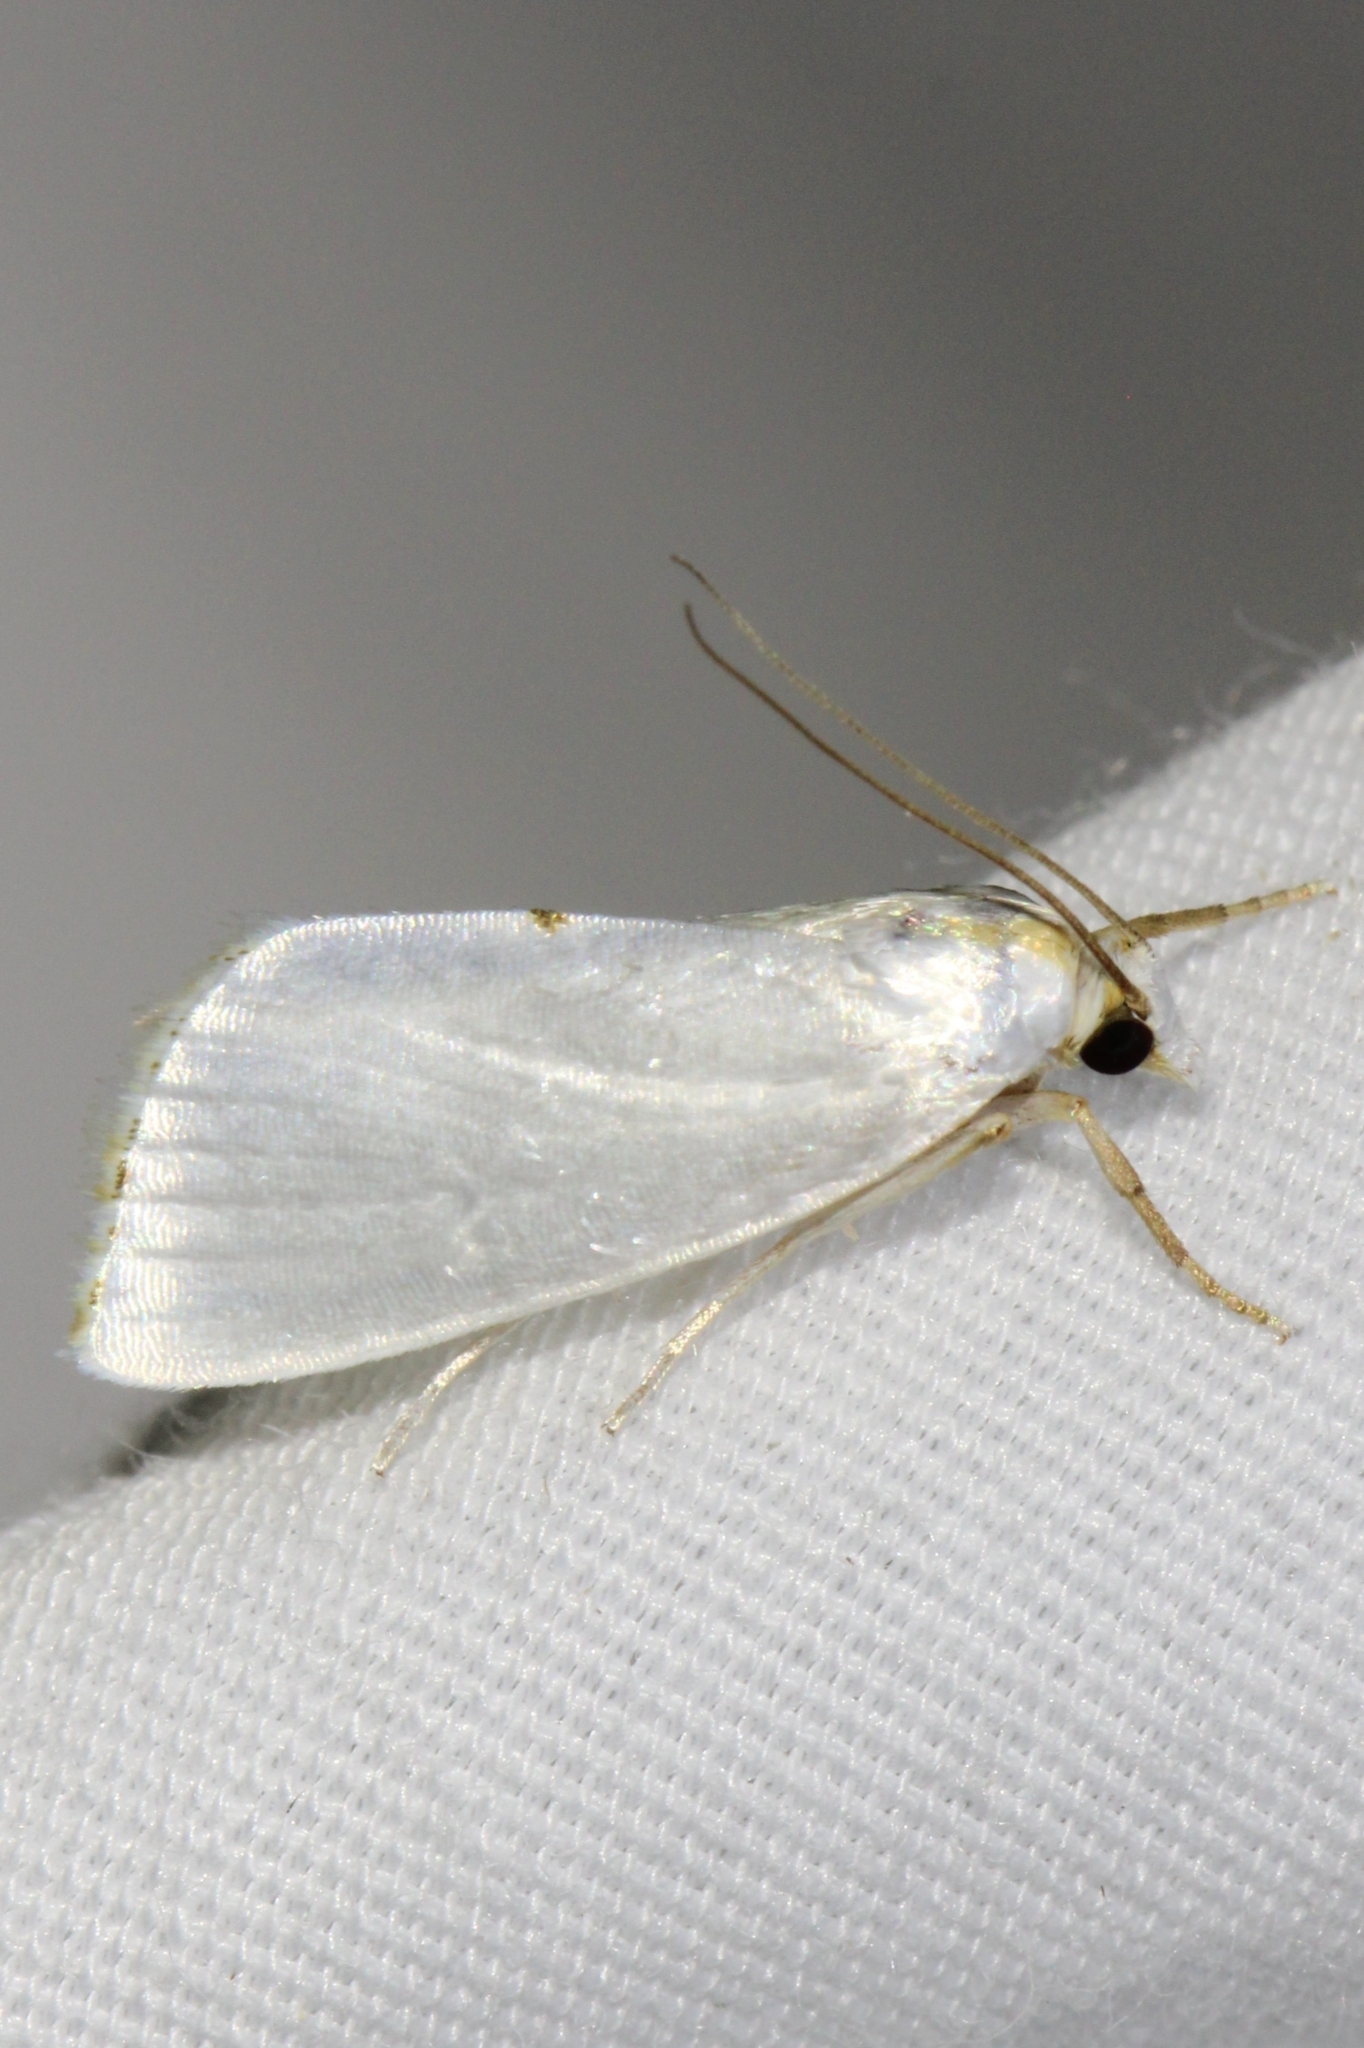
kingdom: Animalia
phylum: Arthropoda
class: Insecta
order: Lepidoptera
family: Crambidae
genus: Argyria
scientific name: Argyria nivalis
